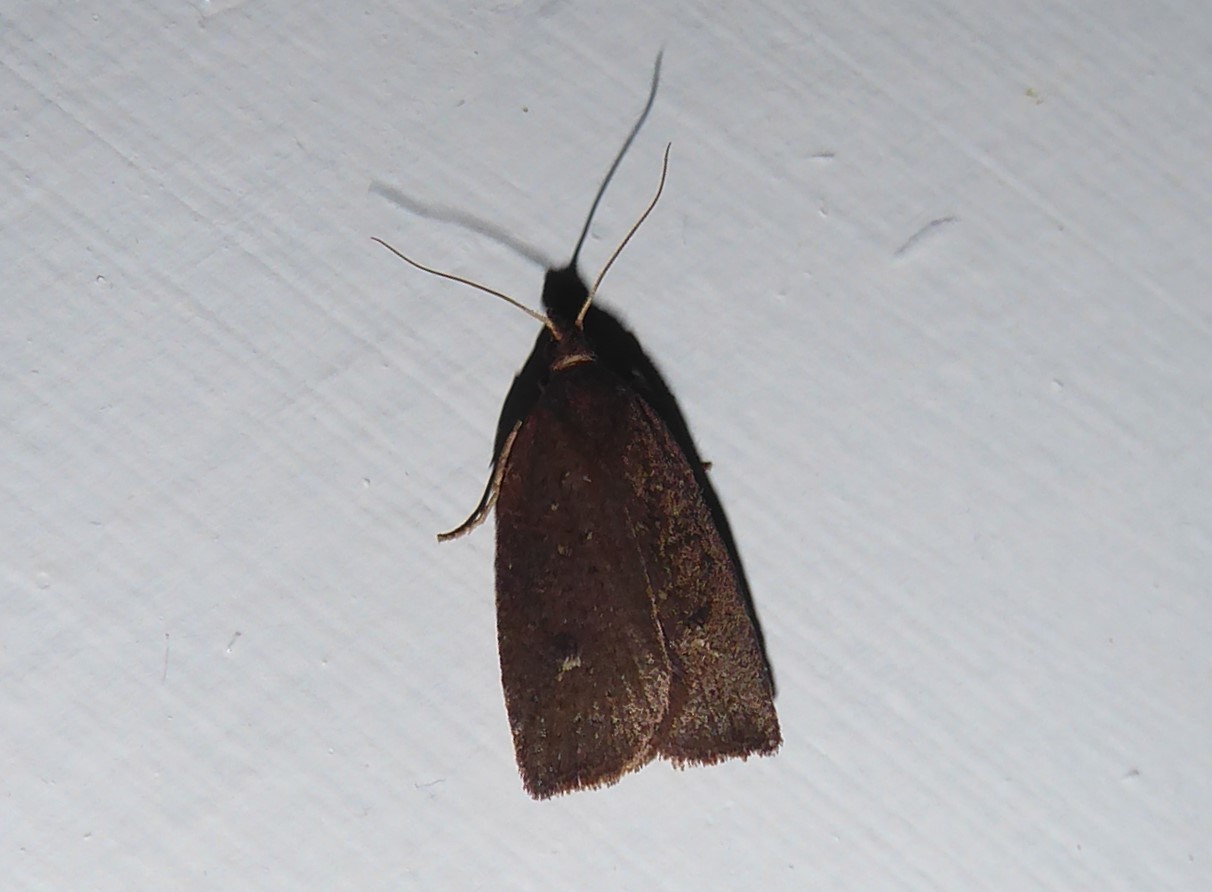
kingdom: Animalia
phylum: Arthropoda
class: Insecta
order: Lepidoptera
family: Tortricidae
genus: Planotortrix
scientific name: Planotortrix excessana
